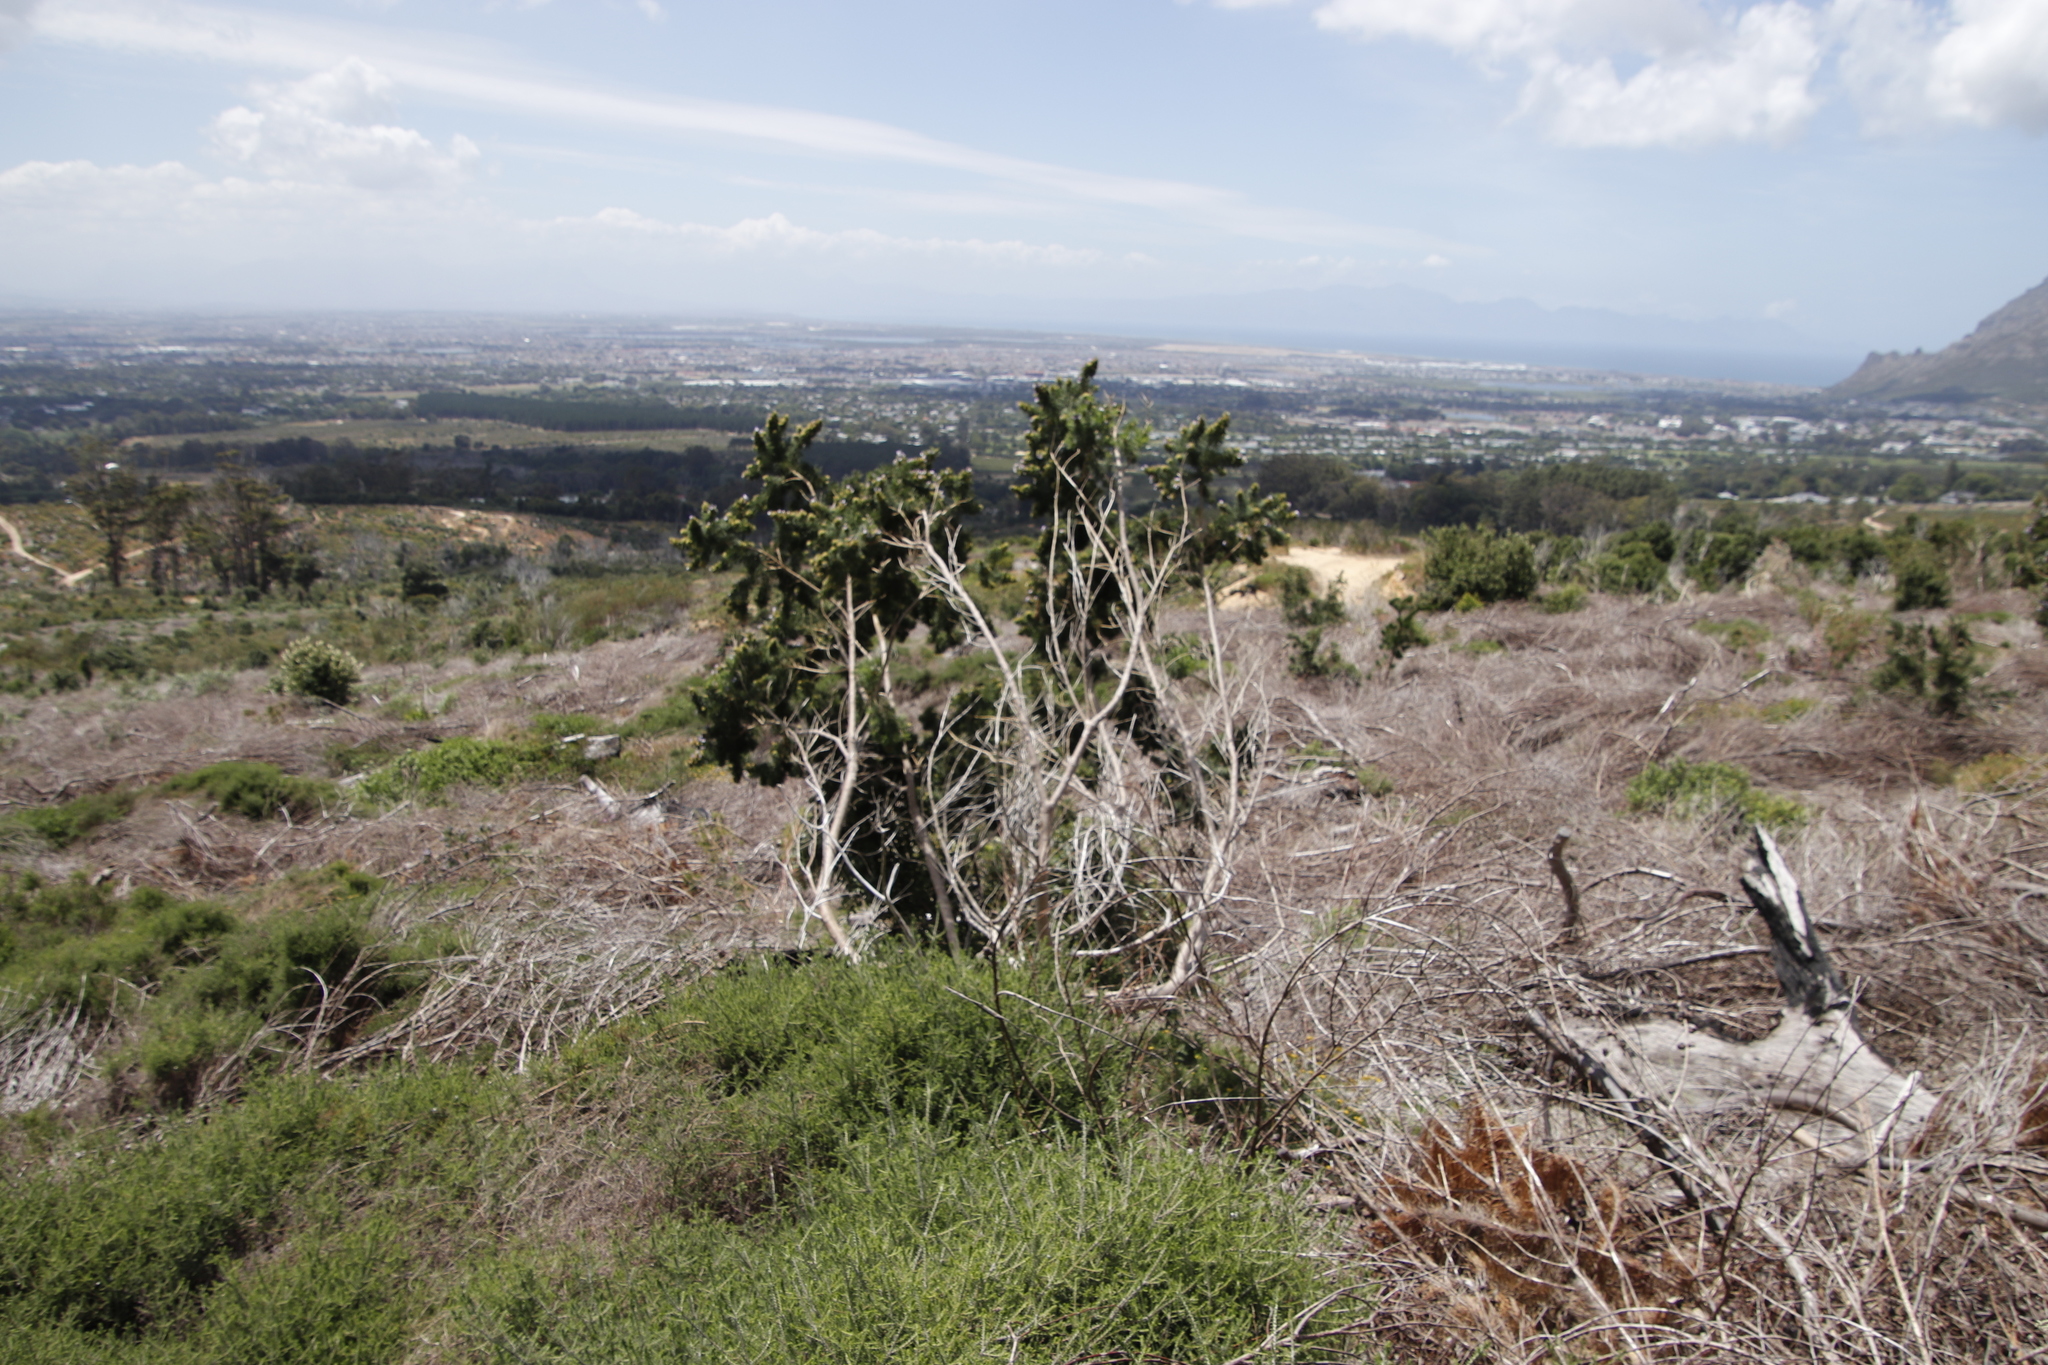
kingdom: Plantae
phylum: Tracheophyta
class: Magnoliopsida
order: Fabales
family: Fabaceae
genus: Psoralea
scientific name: Psoralea pinnata
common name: African scurfpea
